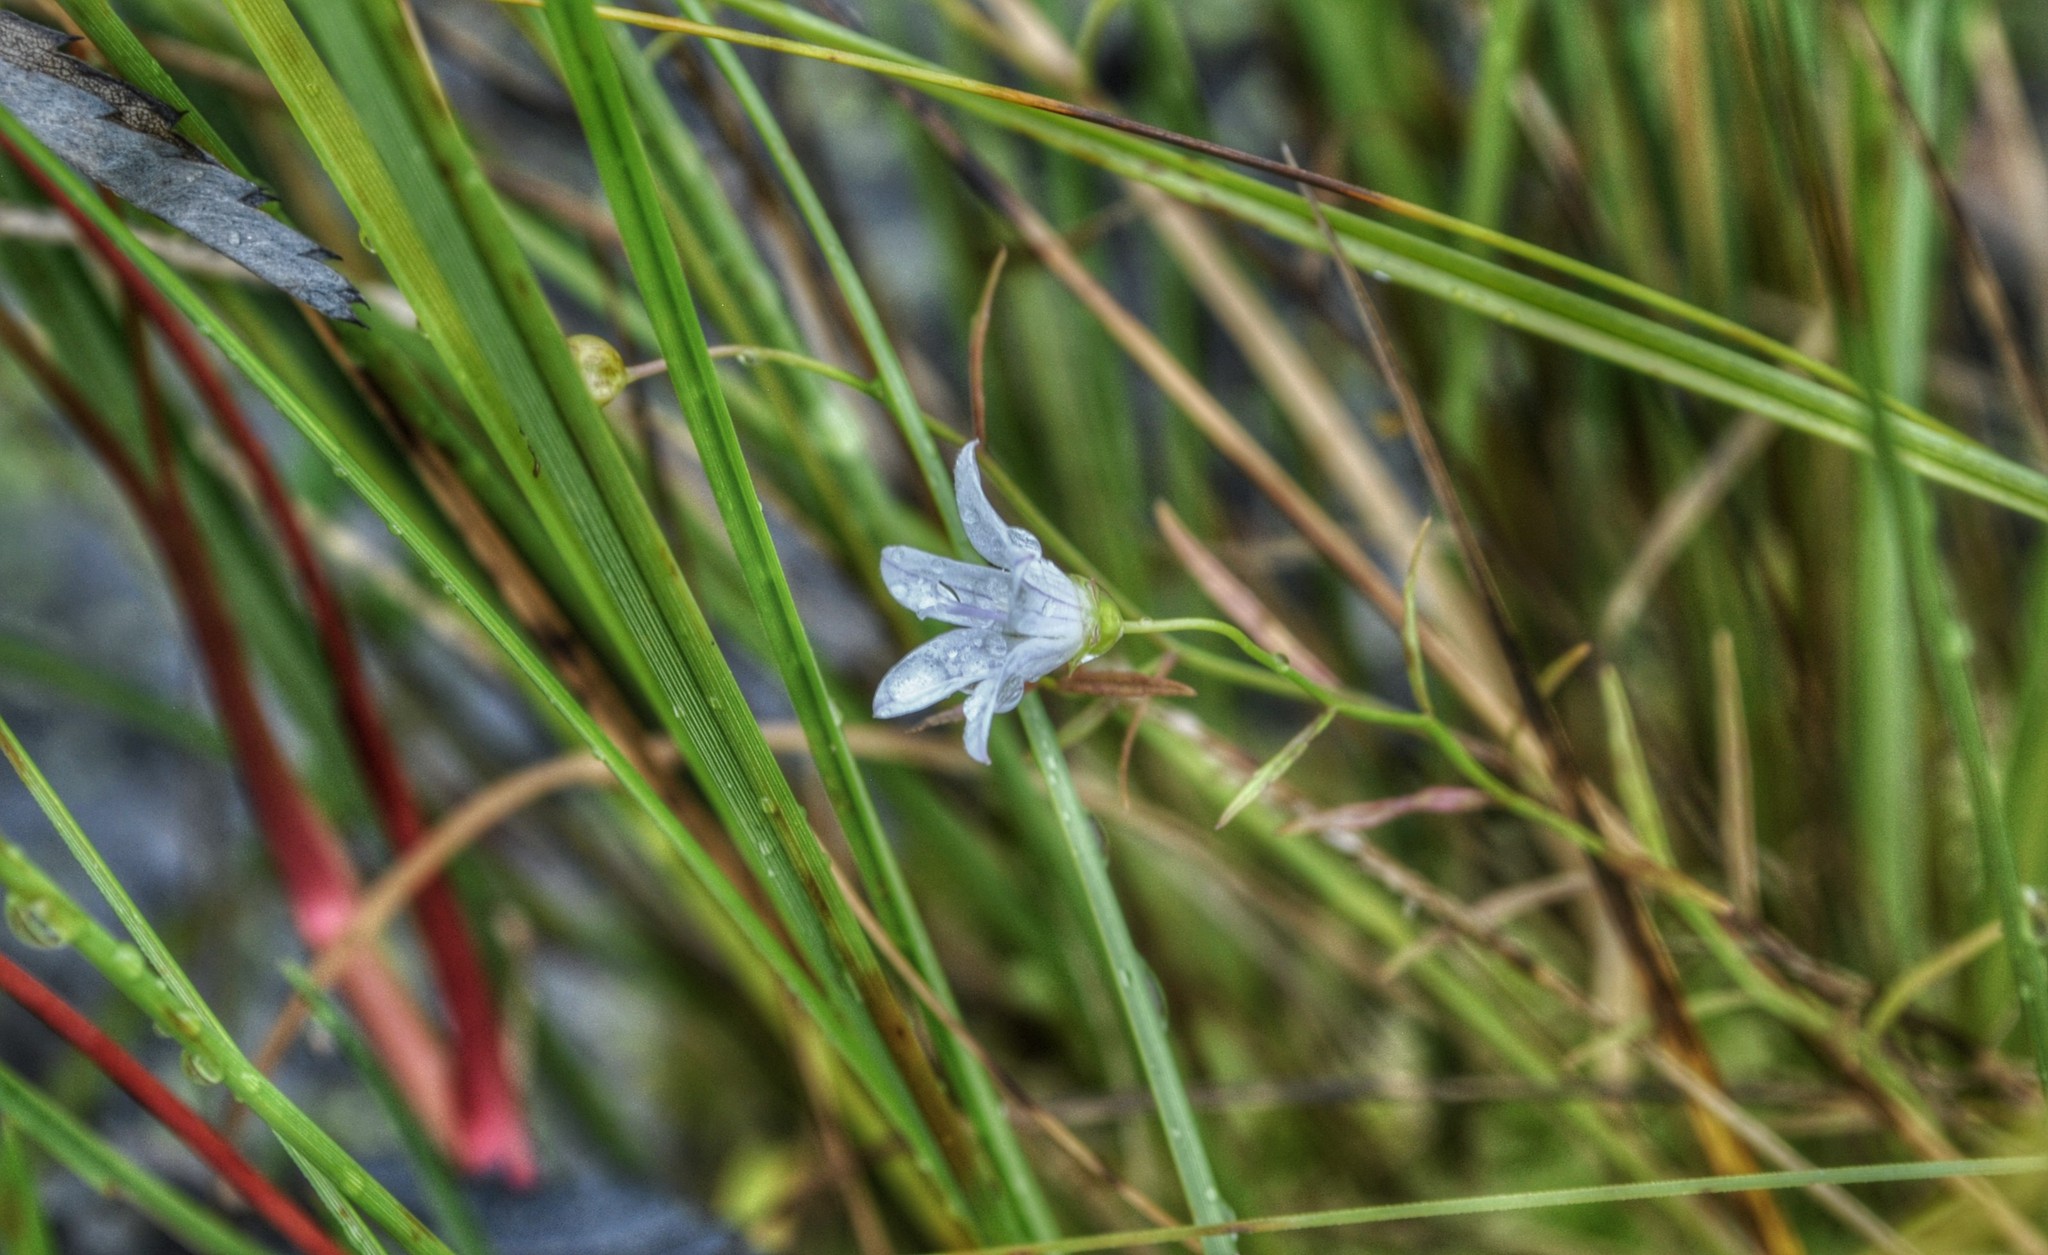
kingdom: Plantae
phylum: Tracheophyta
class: Magnoliopsida
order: Asterales
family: Campanulaceae
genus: Palustricodon
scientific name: Palustricodon aparinoides
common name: Bedstraw bellflower
